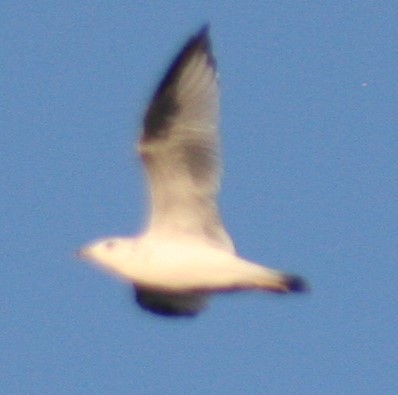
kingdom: Animalia
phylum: Chordata
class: Aves
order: Charadriiformes
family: Laridae
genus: Larus
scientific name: Larus delawarensis
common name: Ring-billed gull
